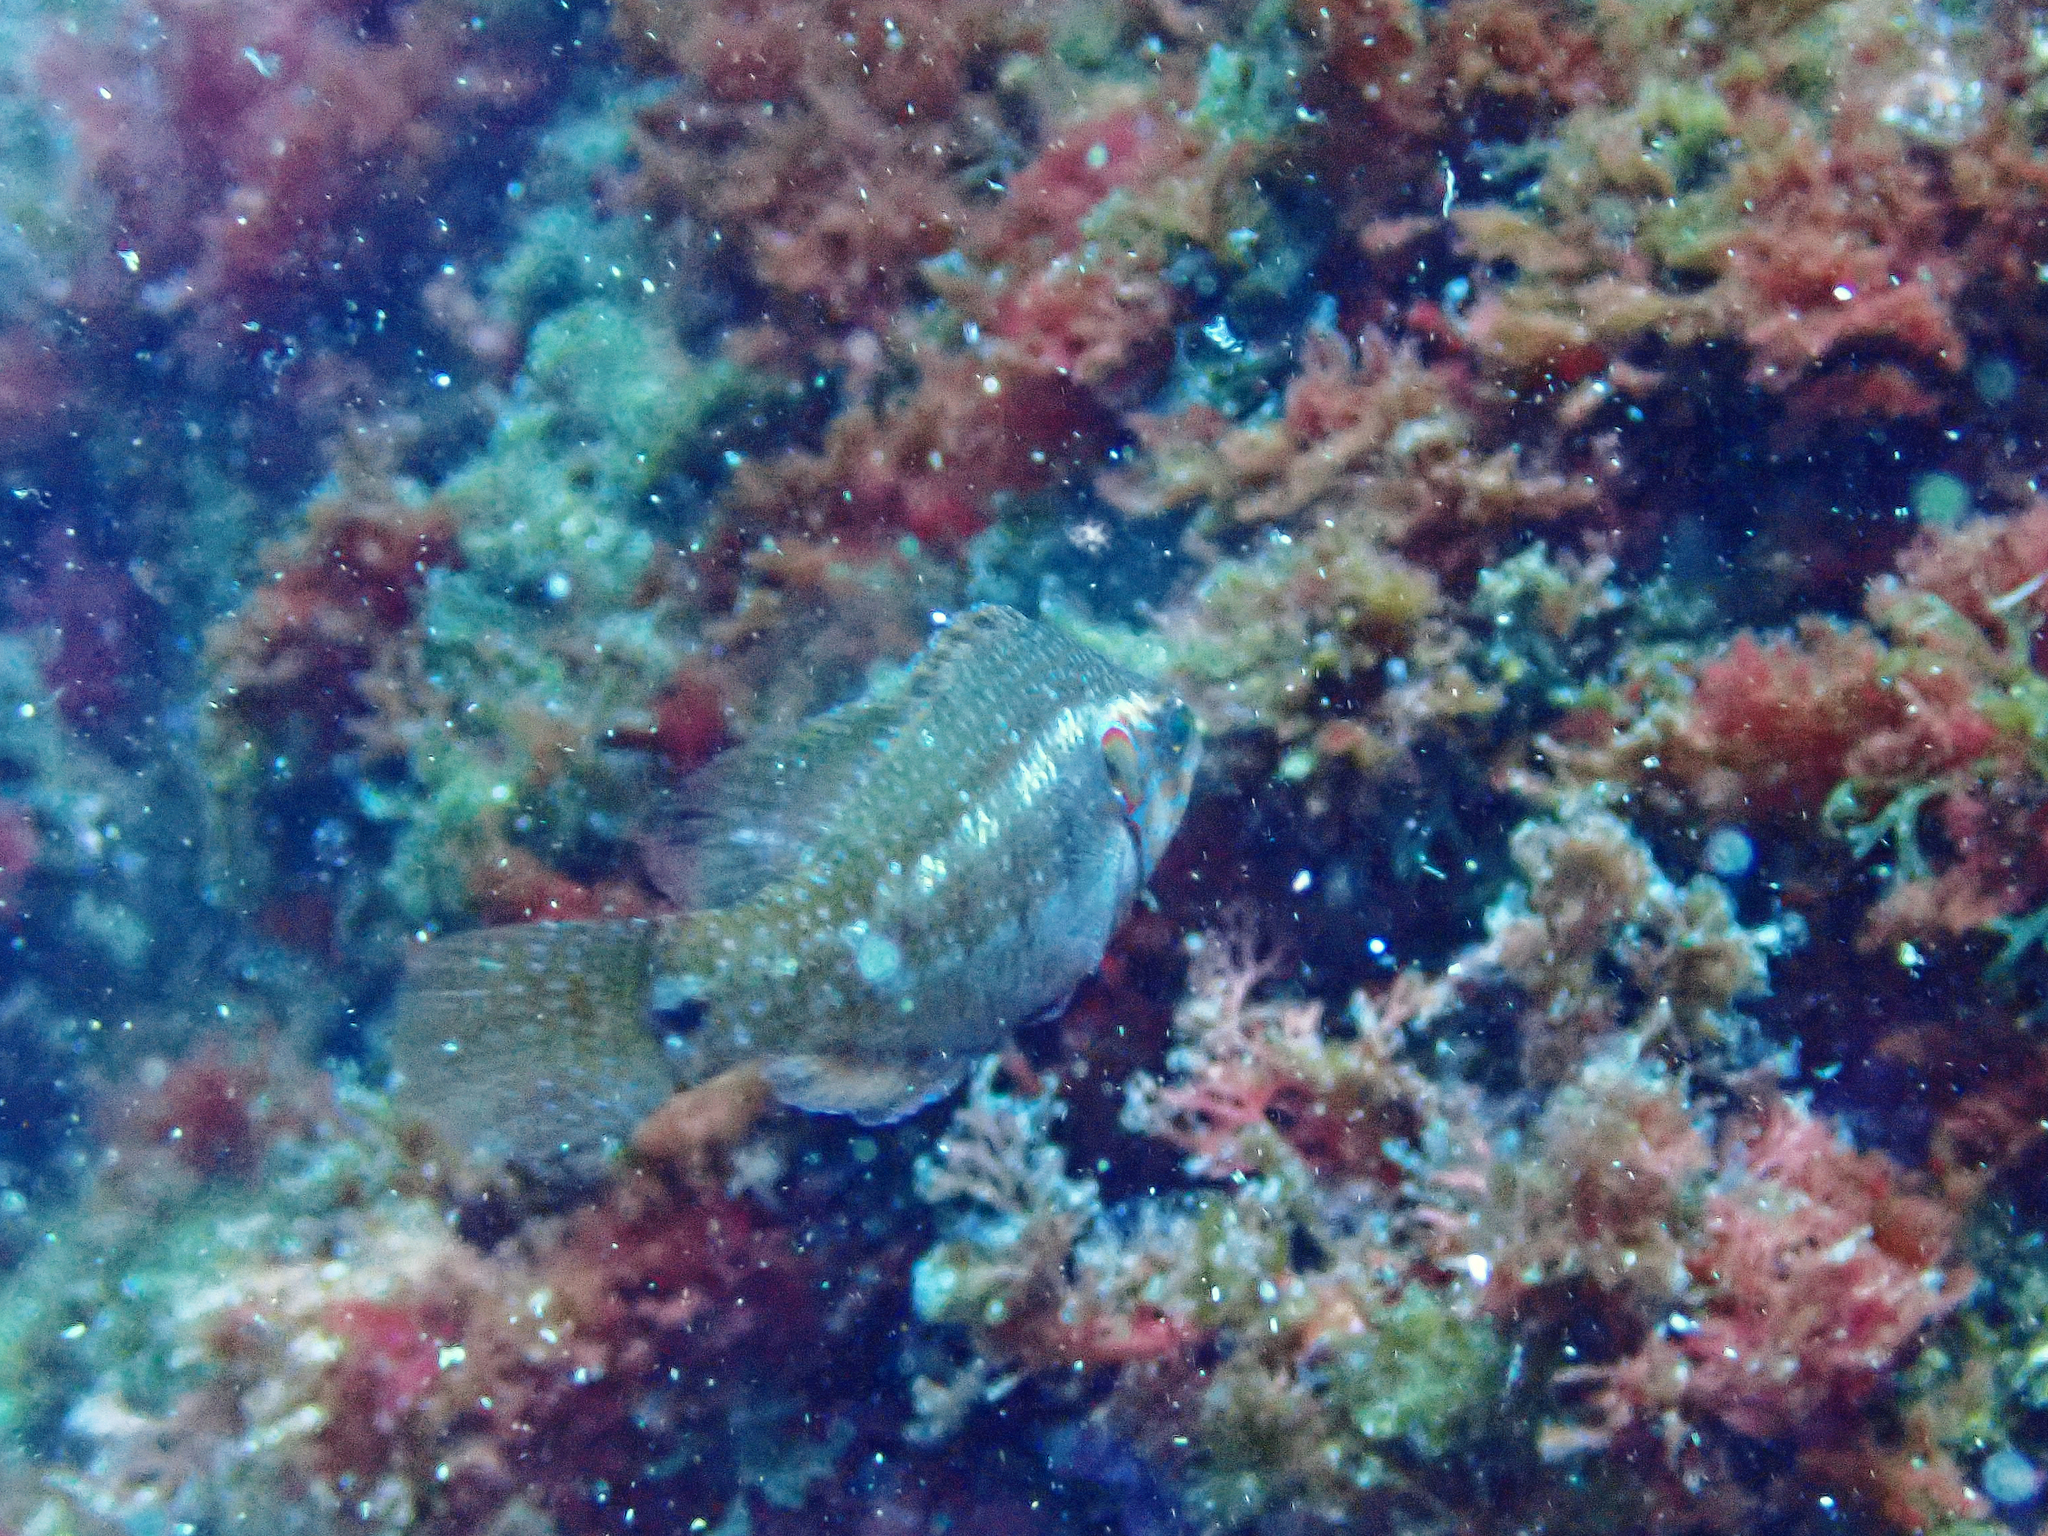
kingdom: Animalia
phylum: Chordata
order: Perciformes
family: Labridae
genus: Symphodus
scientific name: Symphodus ocellatus
